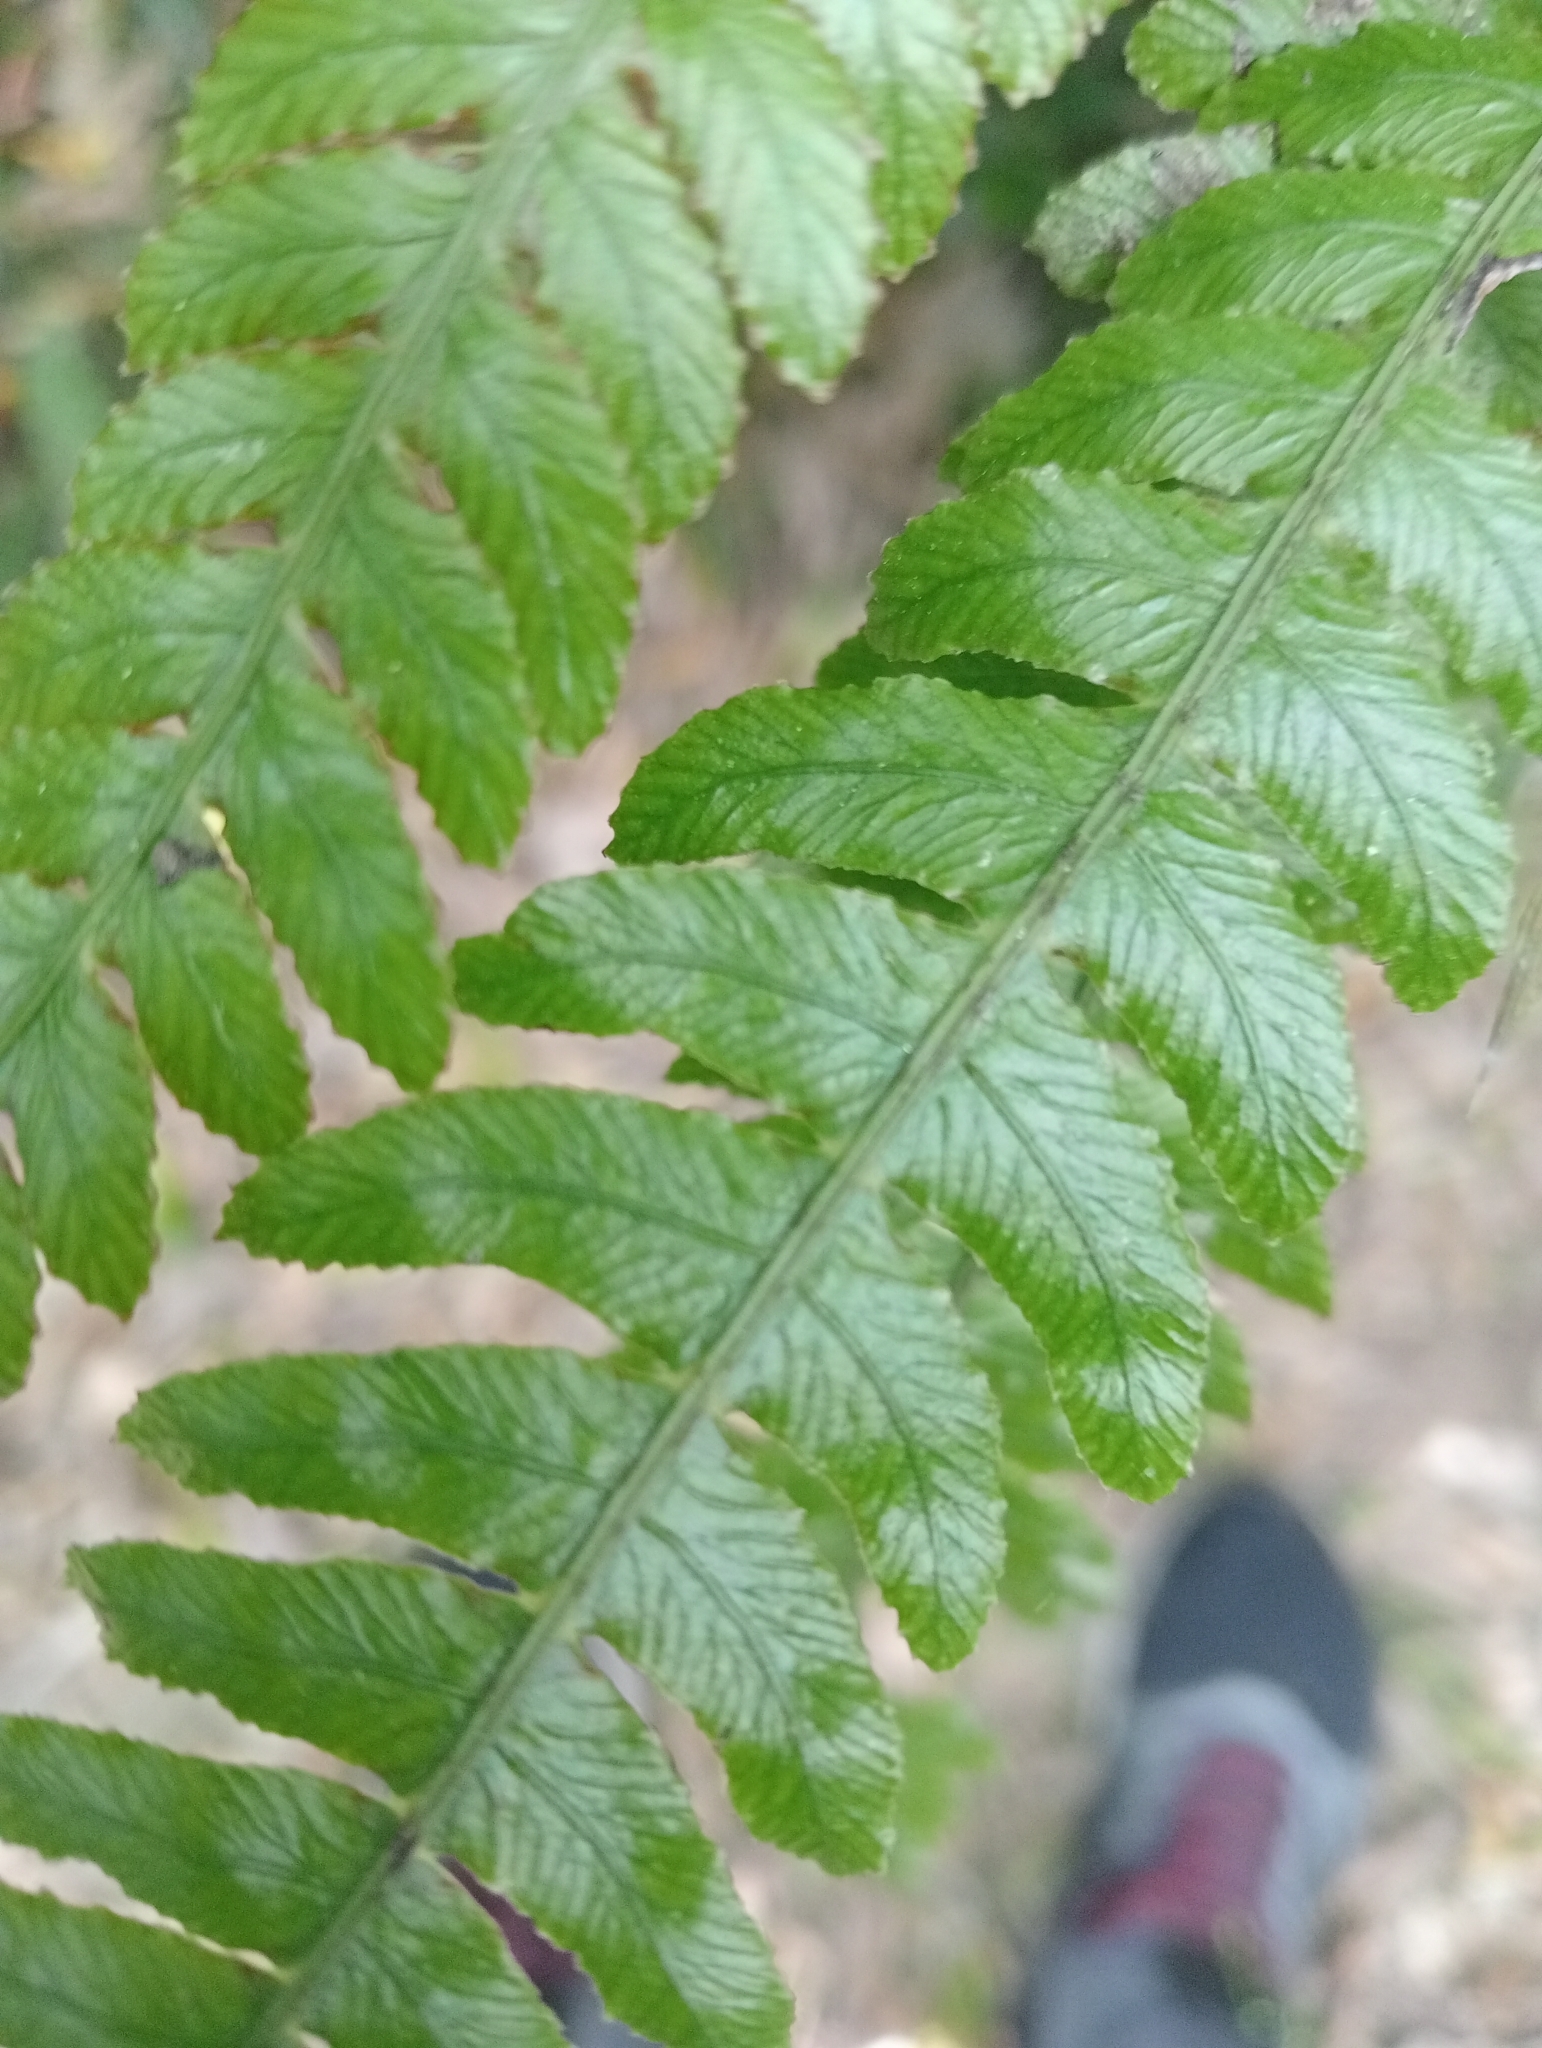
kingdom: Plantae
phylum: Tracheophyta
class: Polypodiopsida
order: Polypodiales
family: Blechnaceae
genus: Austroblechnum
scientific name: Austroblechnum lanceolatum
